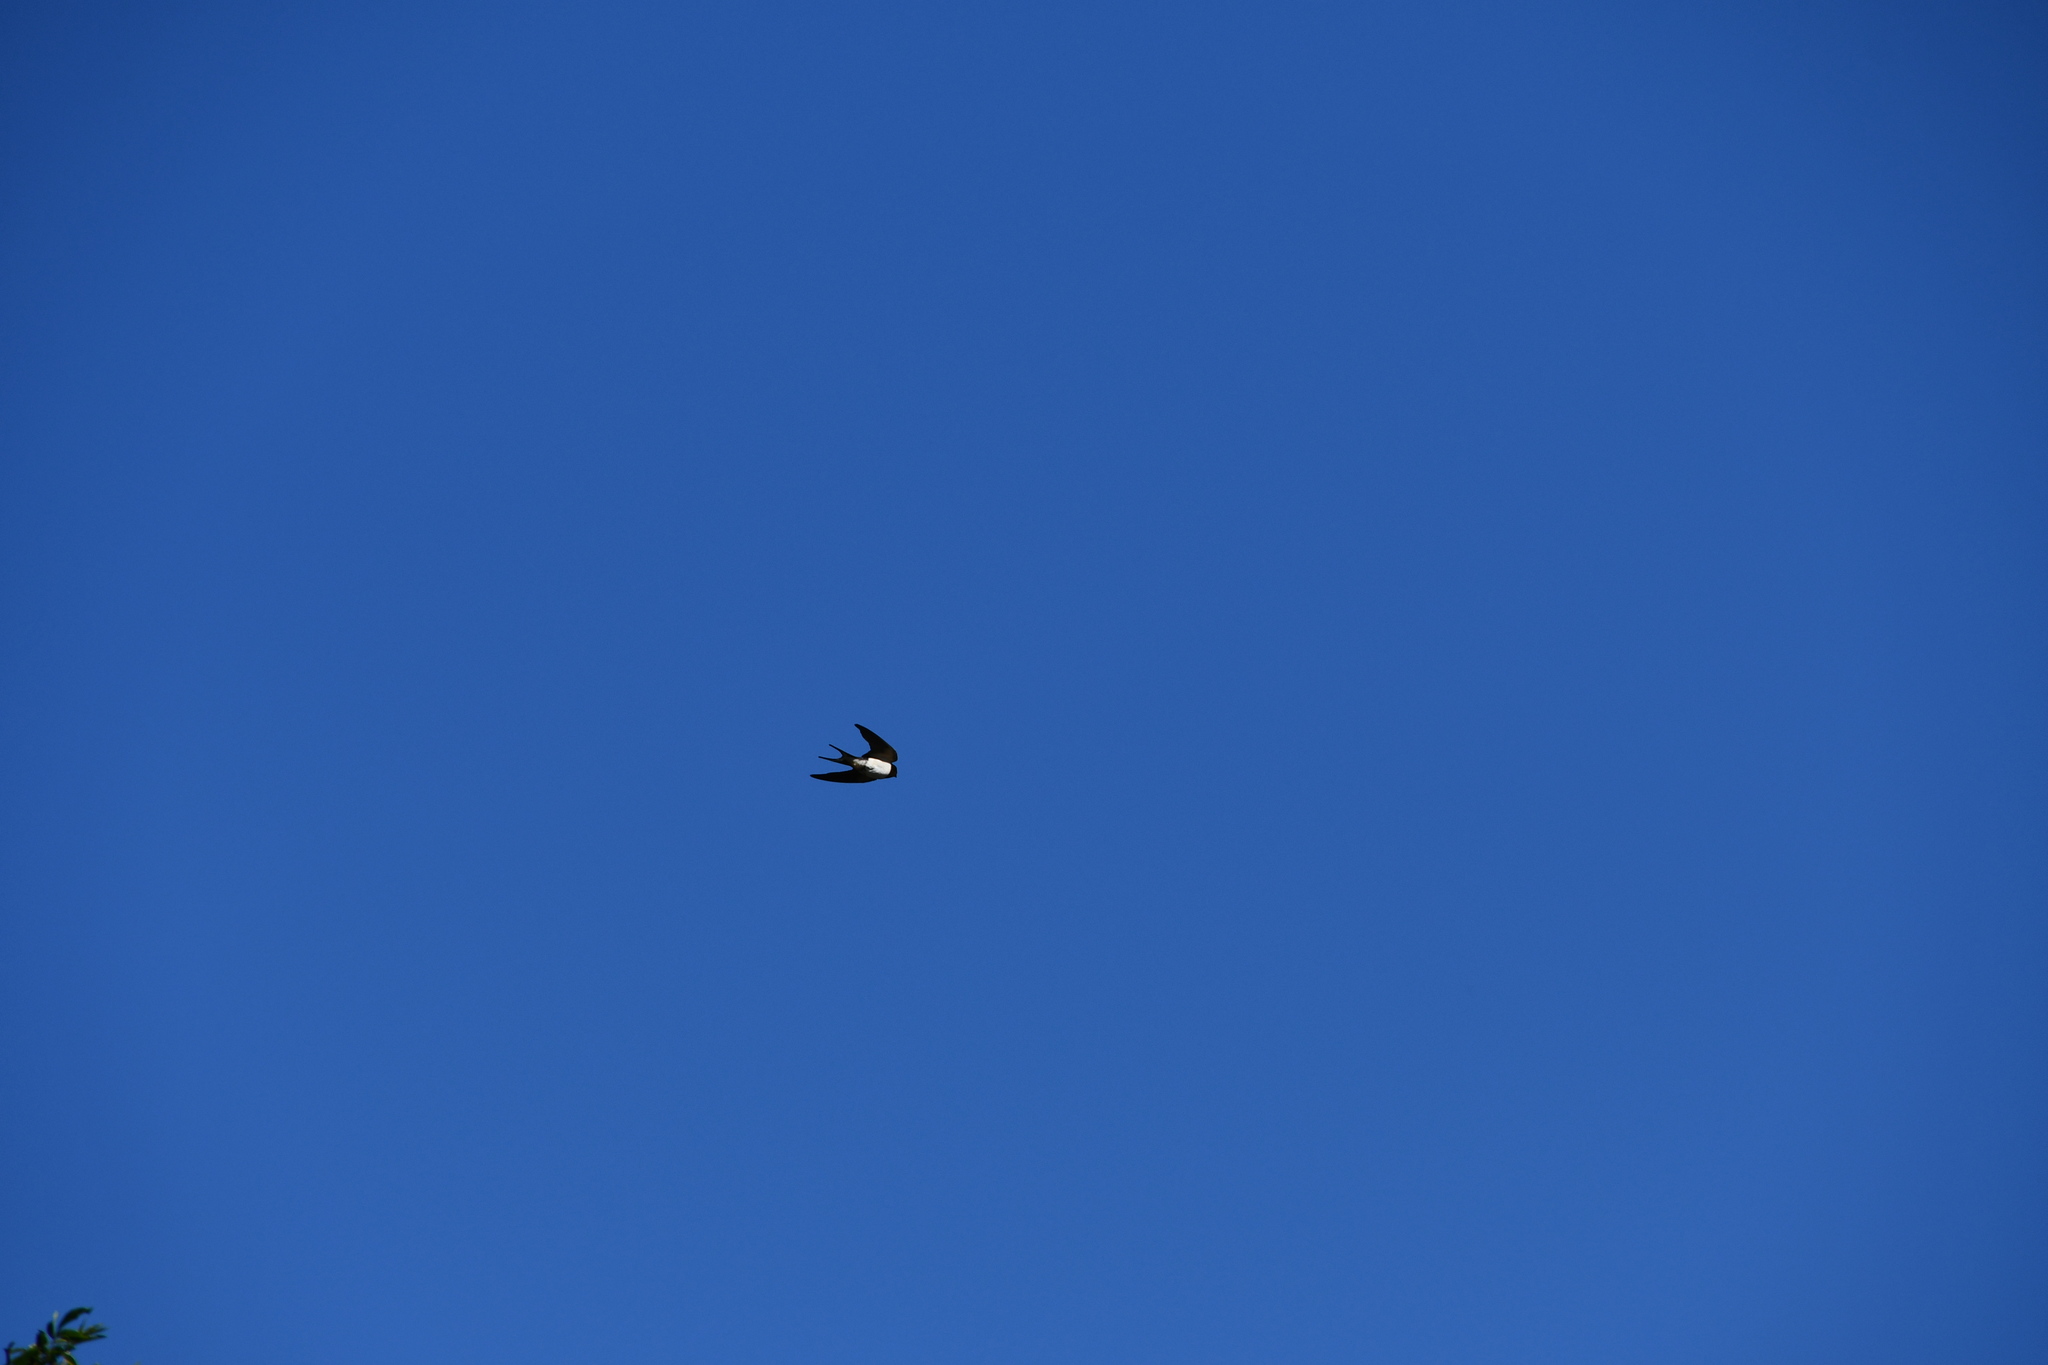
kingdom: Animalia
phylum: Chordata
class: Aves
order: Passeriformes
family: Hirundinidae
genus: Hirundo
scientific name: Hirundo rustica
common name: Barn swallow
